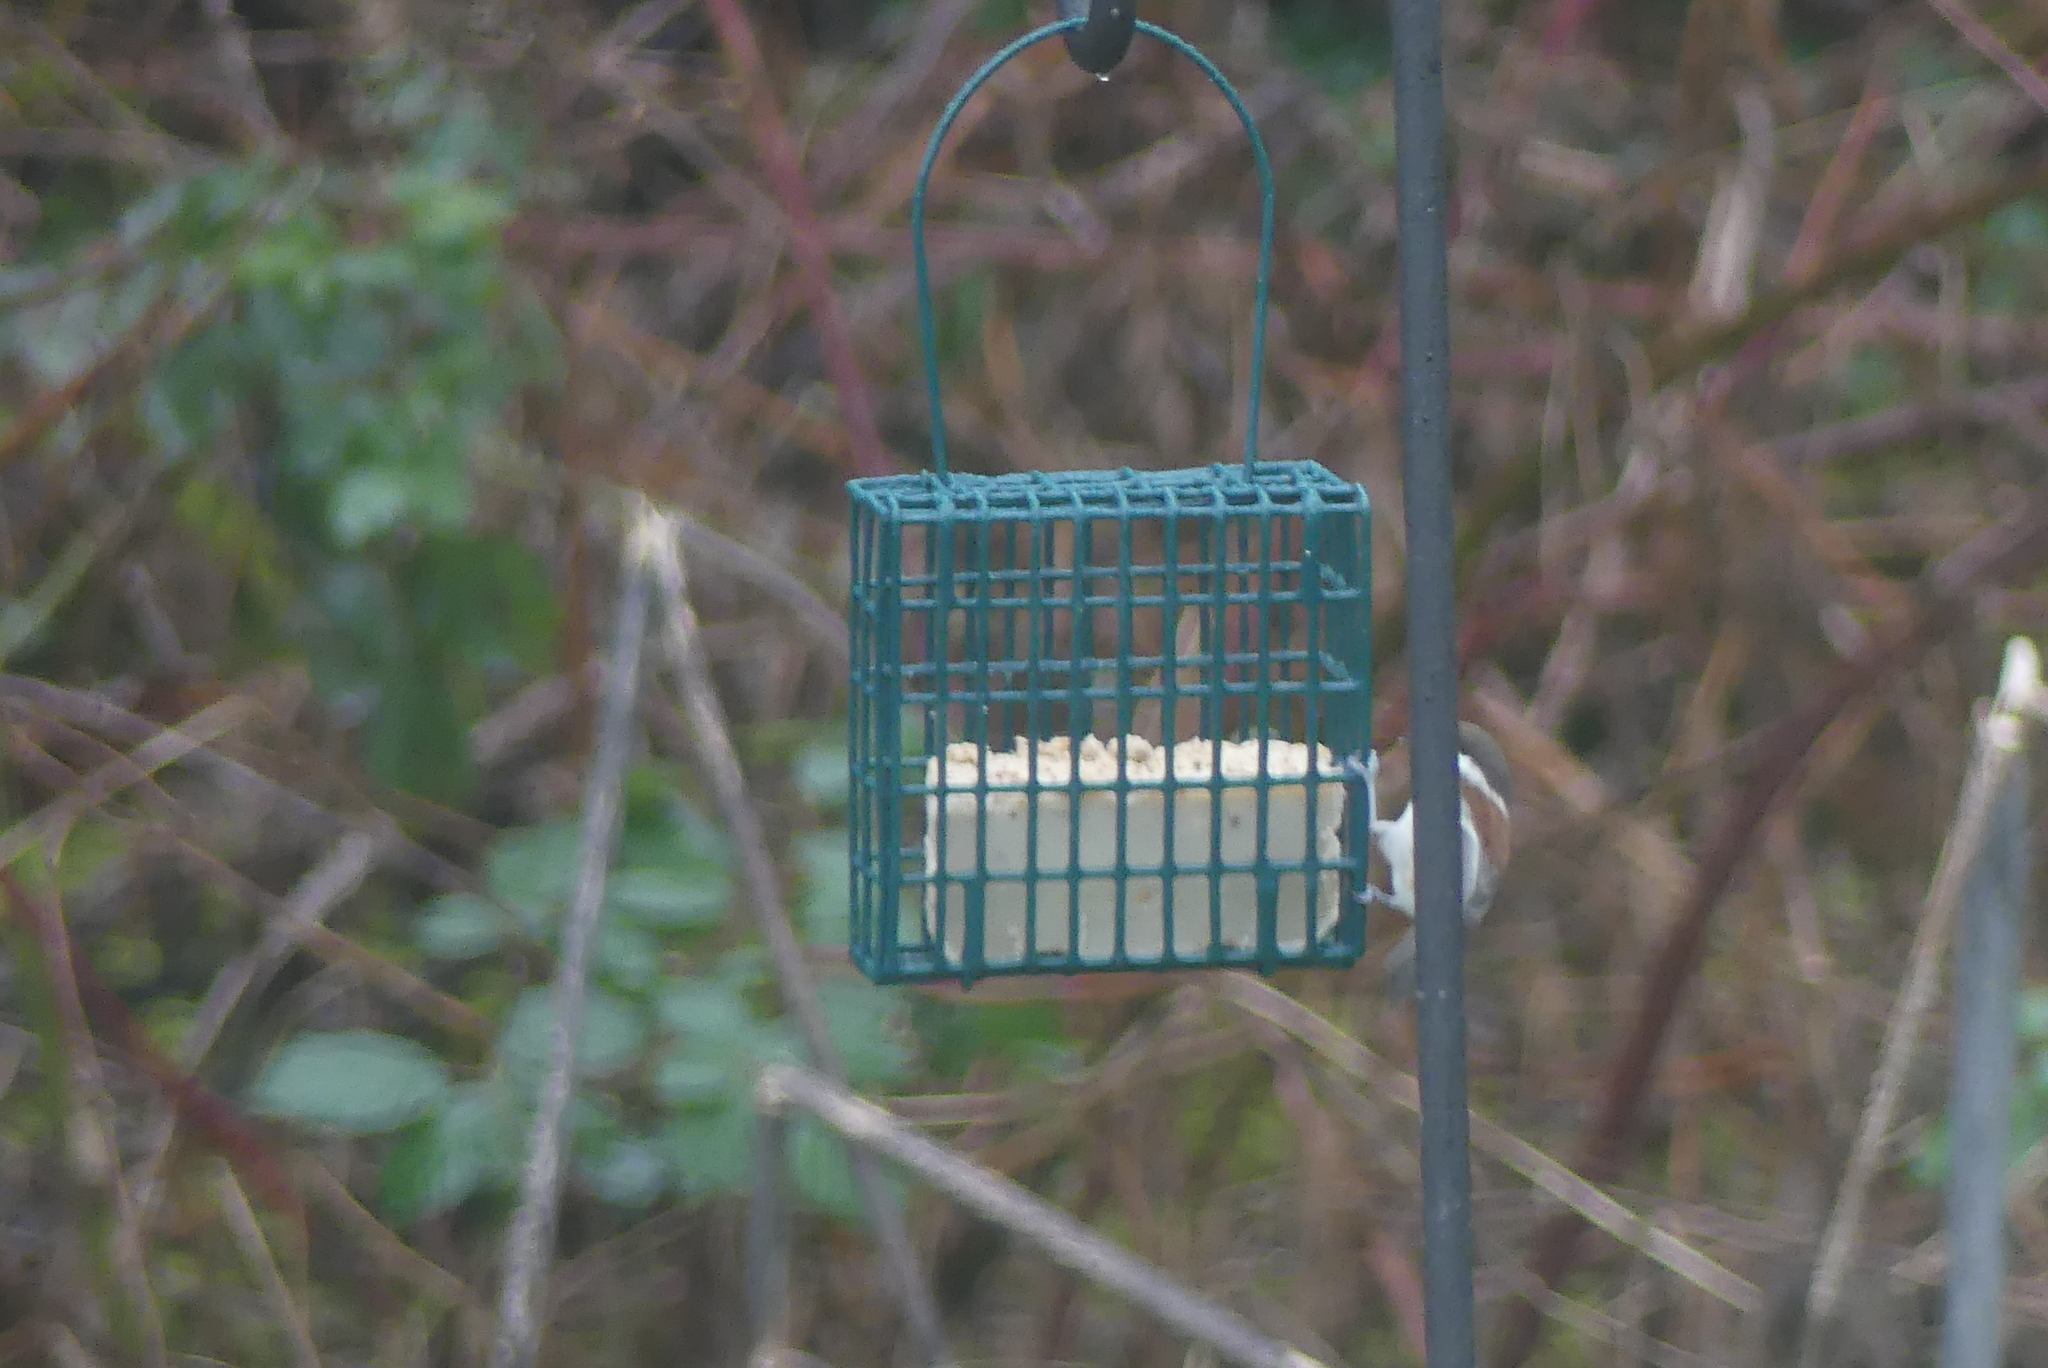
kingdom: Animalia
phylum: Chordata
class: Aves
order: Passeriformes
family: Paridae
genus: Poecile
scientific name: Poecile rufescens
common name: Chestnut-backed chickadee
